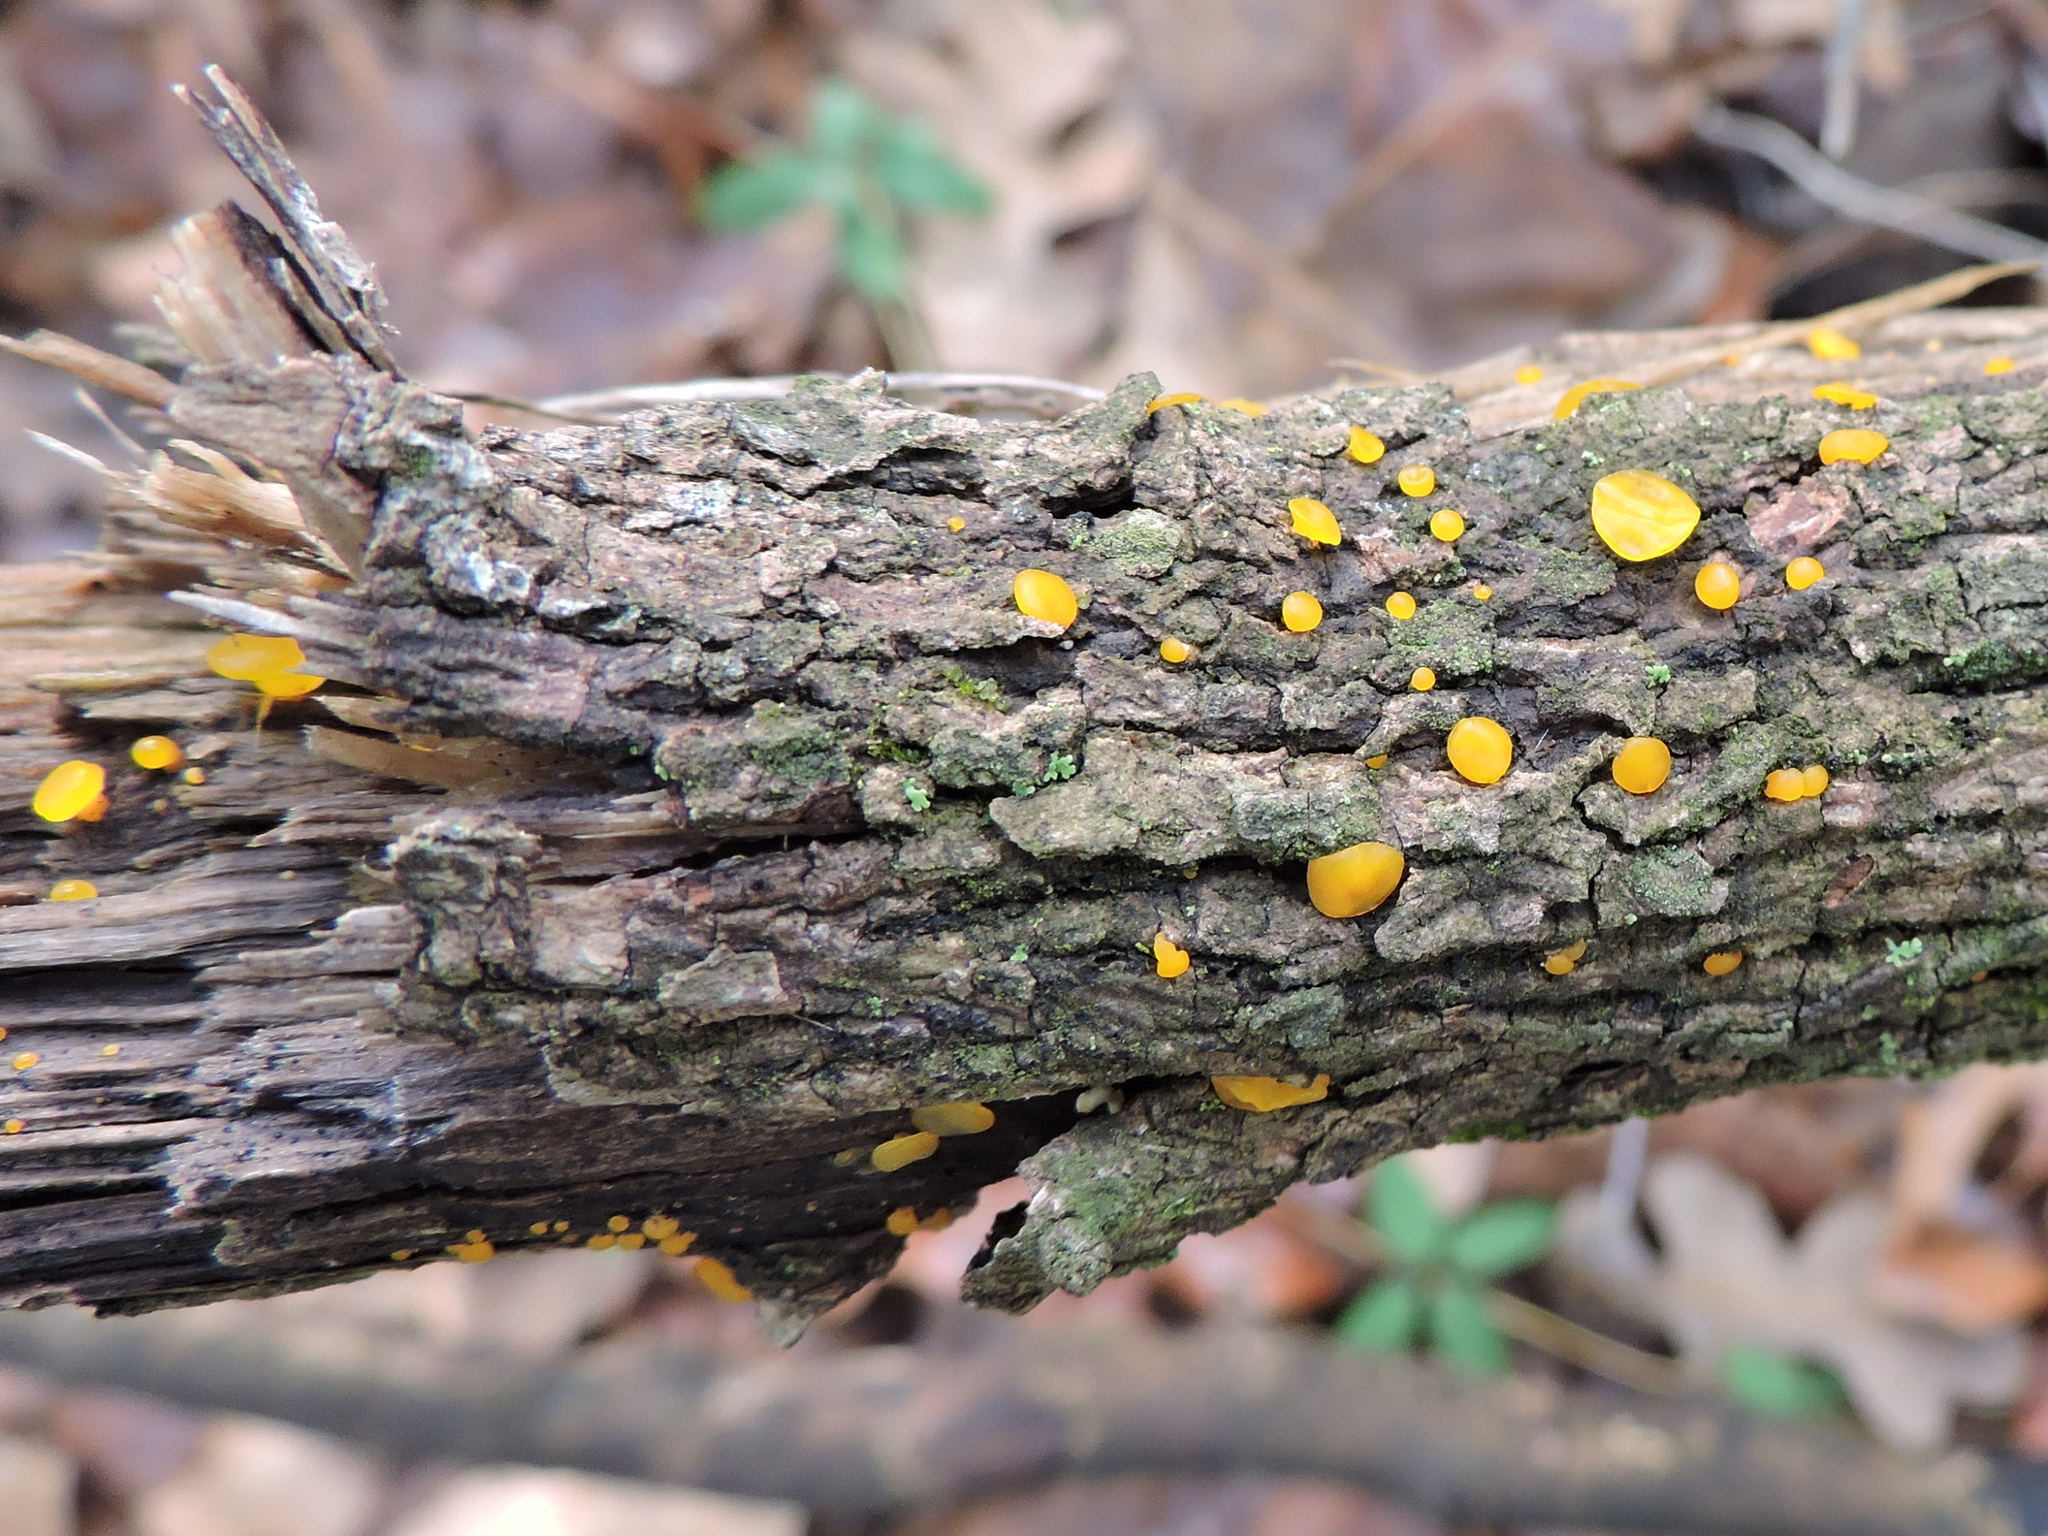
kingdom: Fungi
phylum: Basidiomycota
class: Dacrymycetes
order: Dacrymycetales
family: Dacrymycetaceae
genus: Dacrymyces
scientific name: Dacrymyces capitatus
